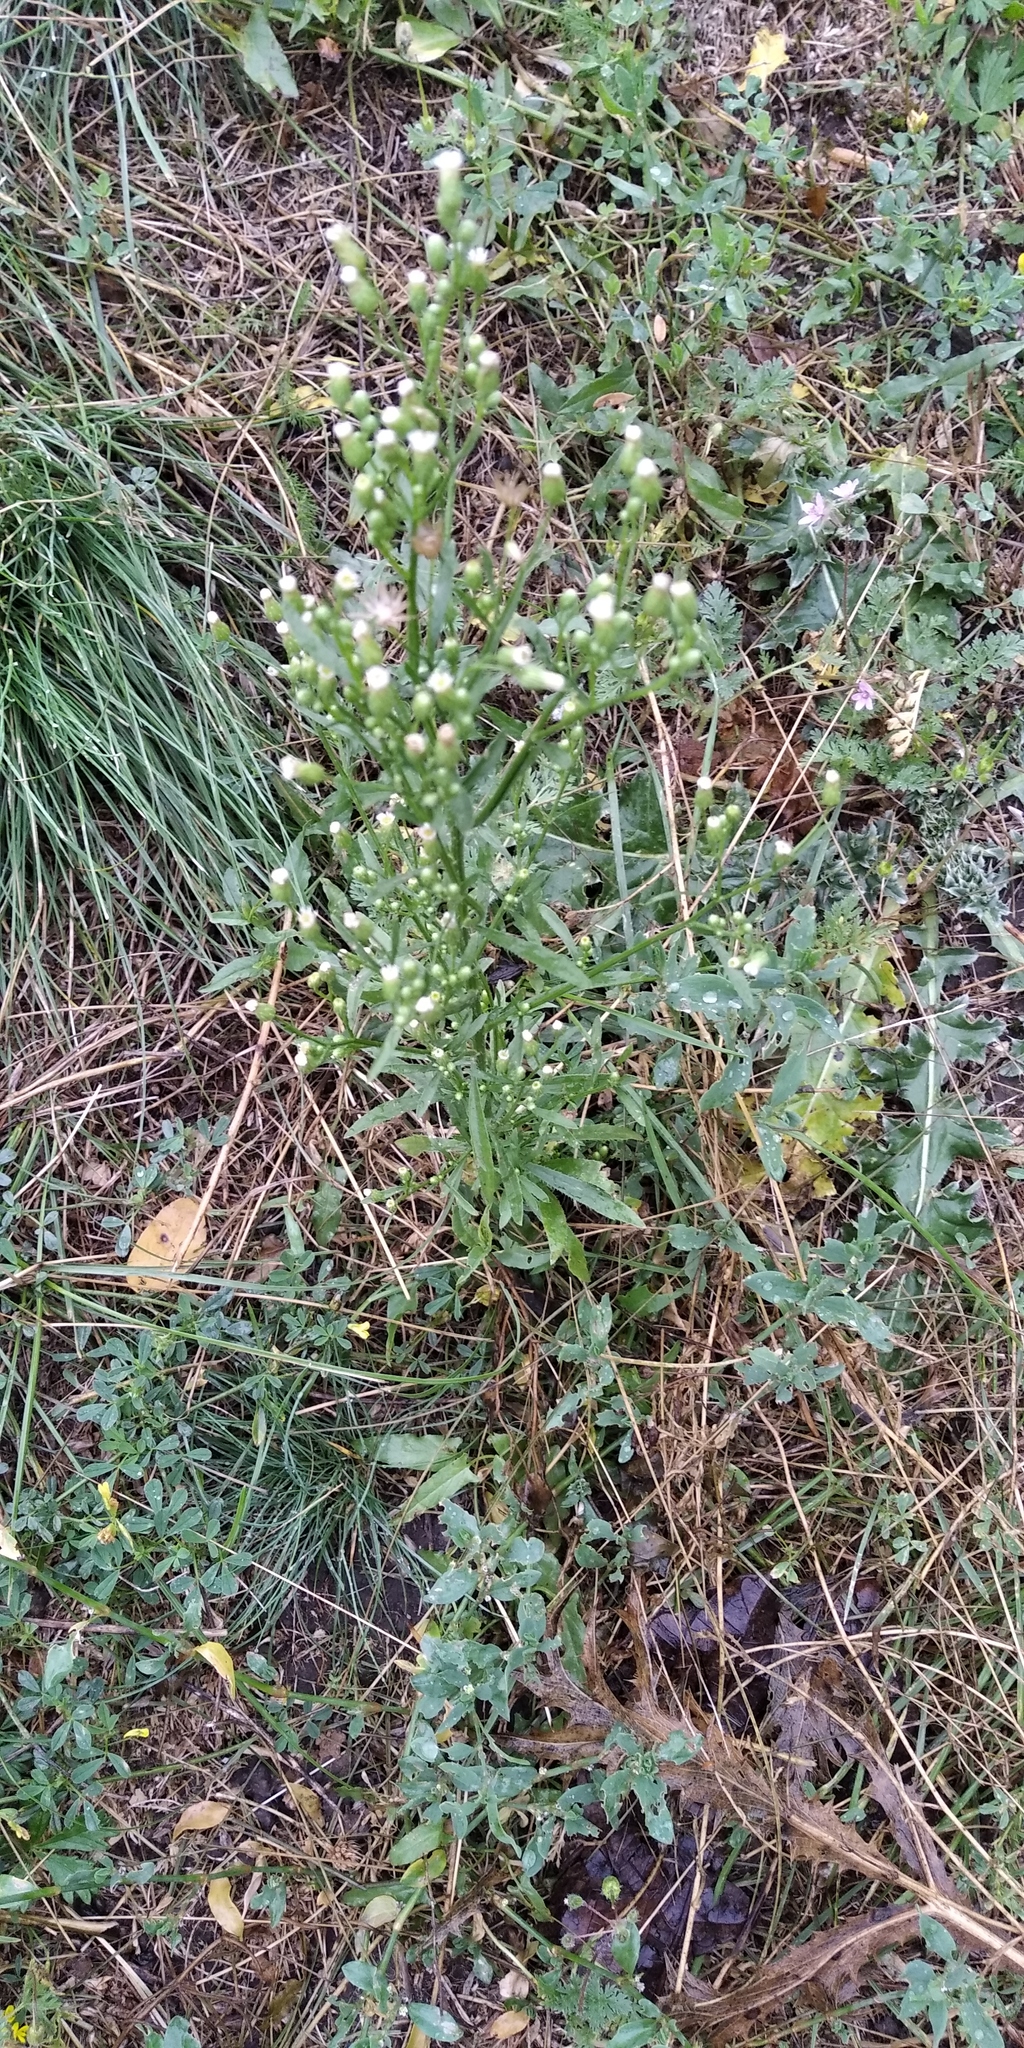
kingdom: Plantae
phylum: Tracheophyta
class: Magnoliopsida
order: Asterales
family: Asteraceae
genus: Erigeron
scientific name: Erigeron canadensis
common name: Canadian fleabane
